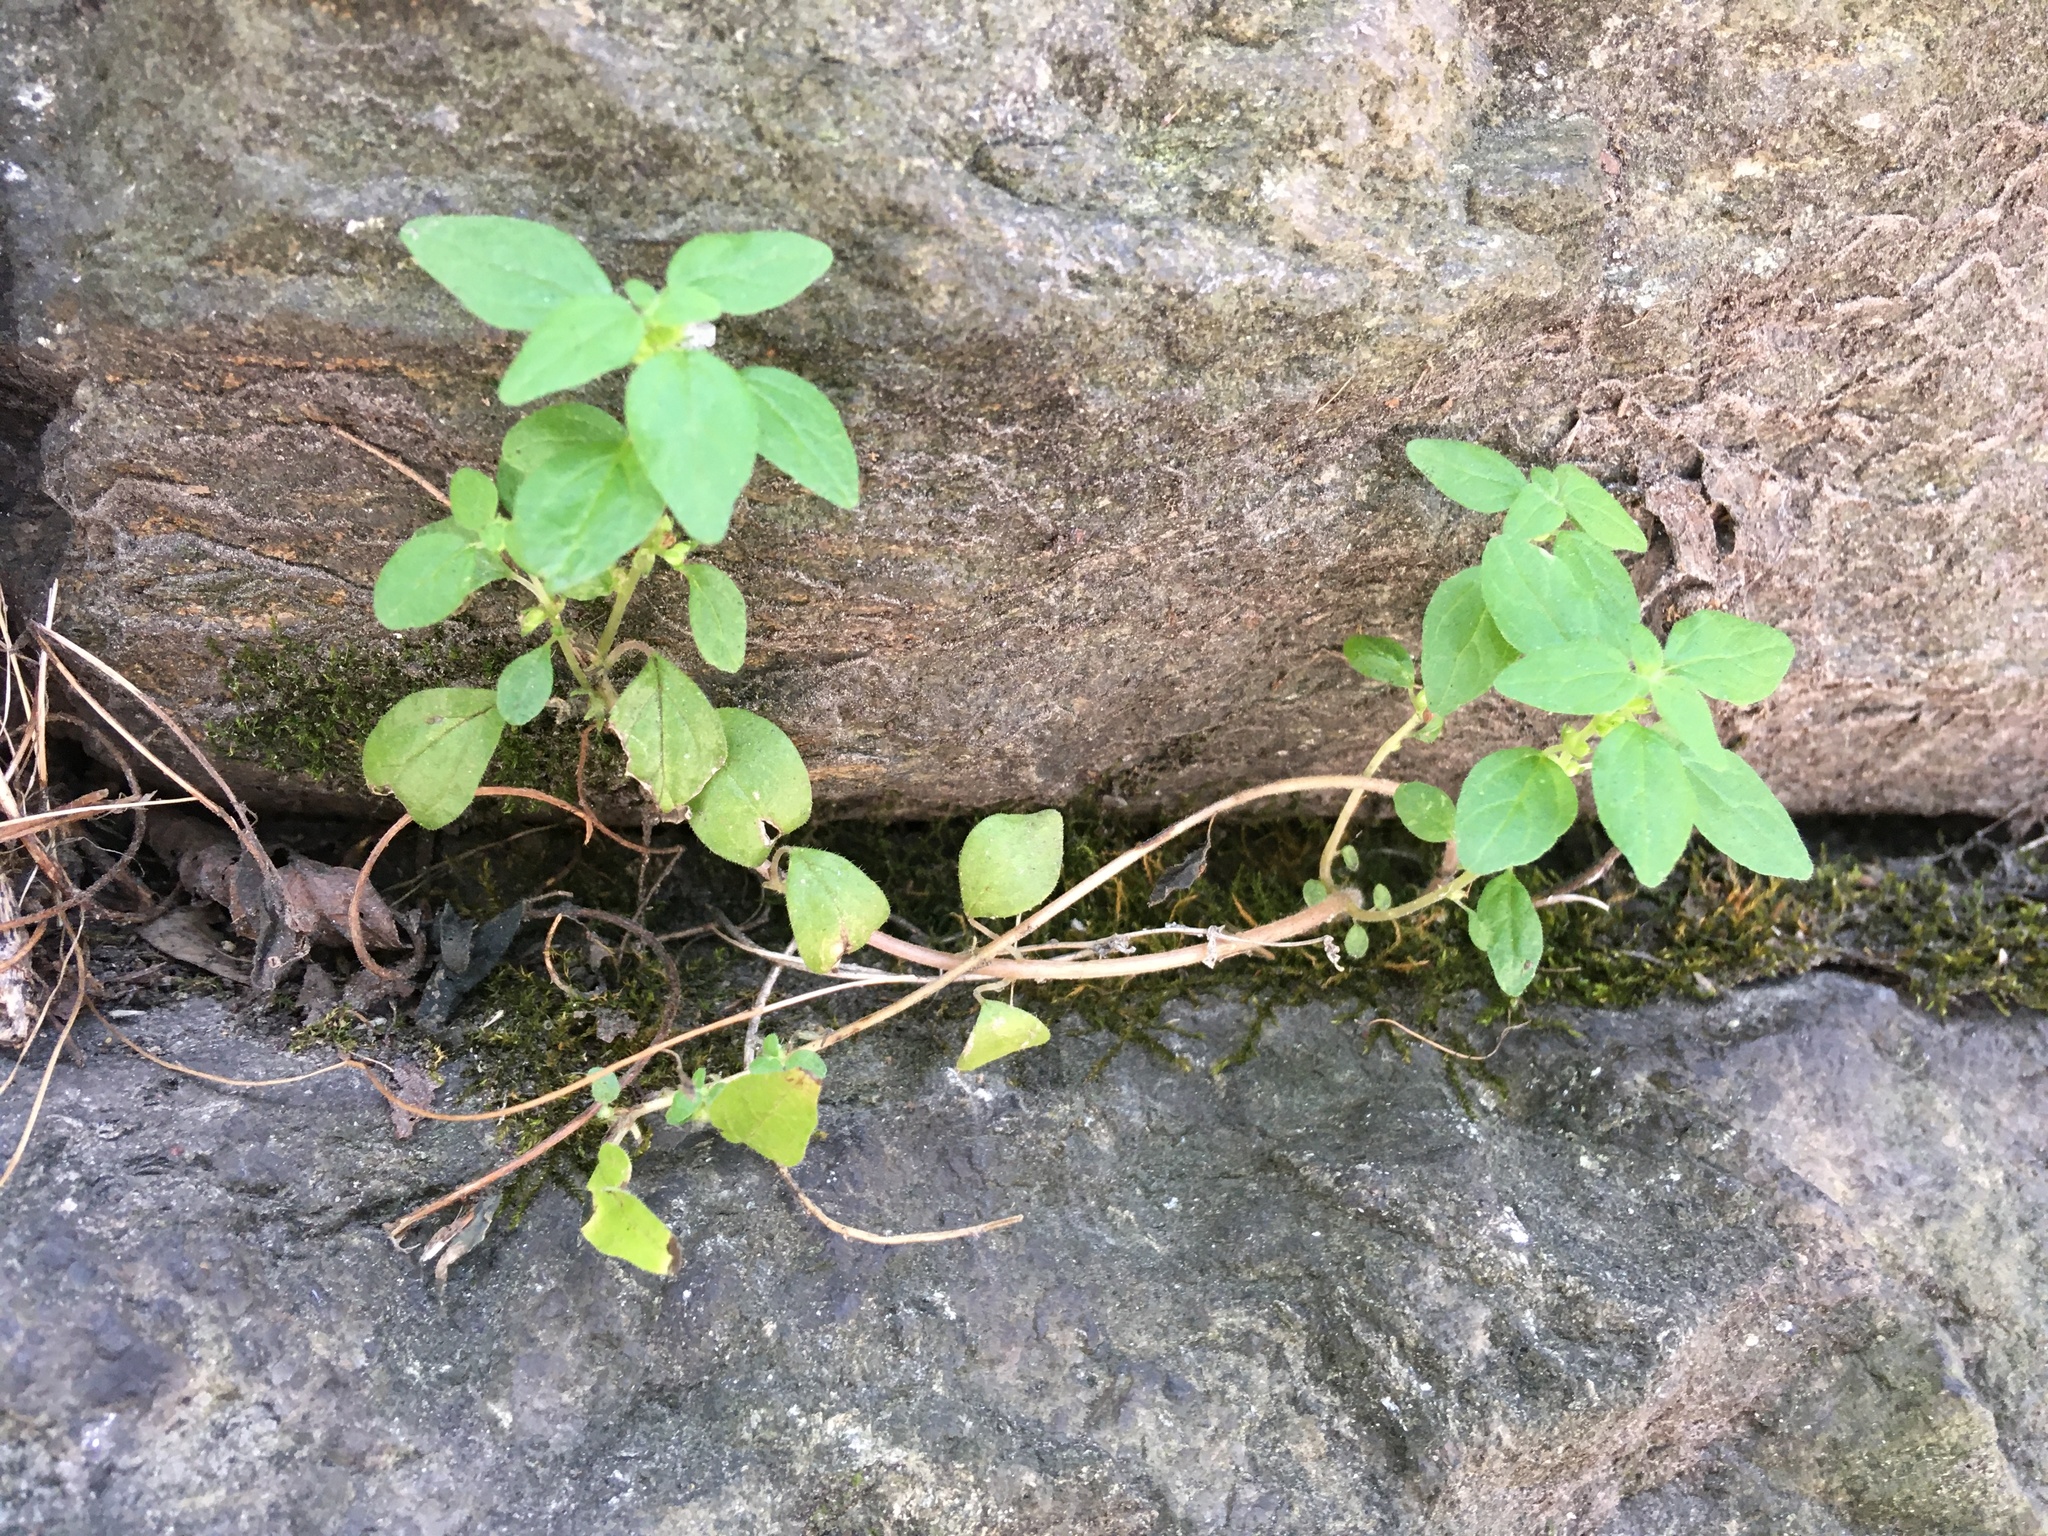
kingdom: Plantae
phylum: Tracheophyta
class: Magnoliopsida
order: Rosales
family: Urticaceae
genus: Parietaria
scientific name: Parietaria pensylvanica
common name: Pennsylvania pellitory
